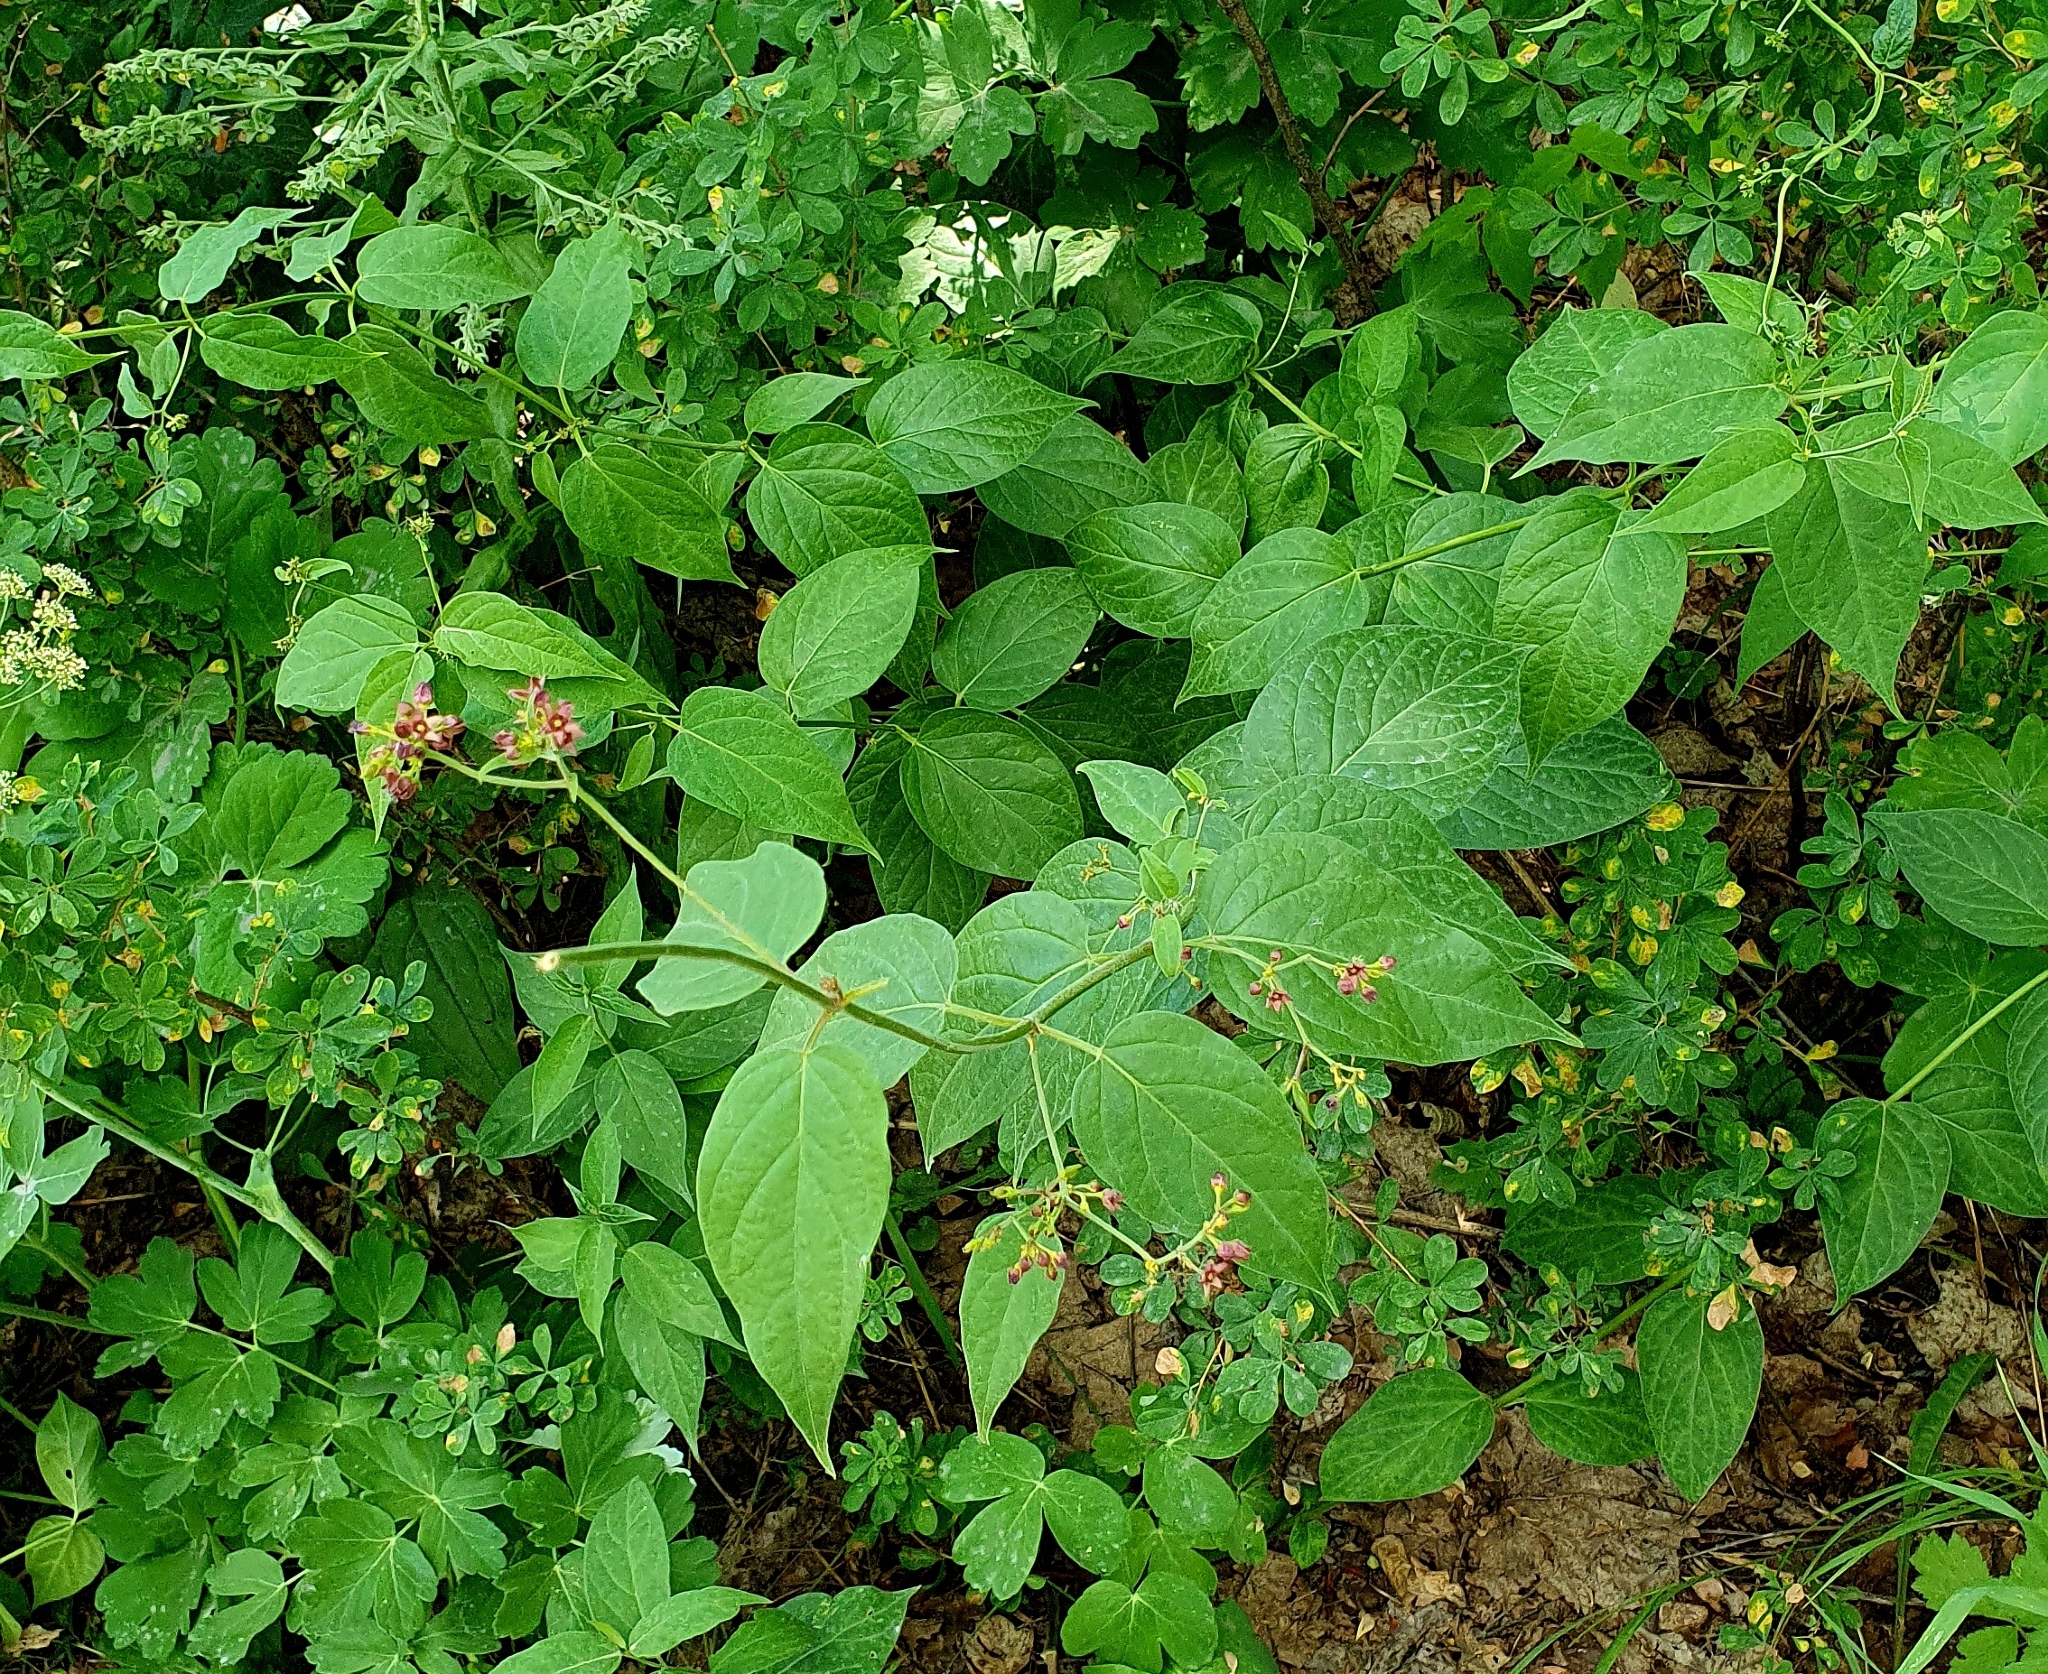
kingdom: Plantae
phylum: Tracheophyta
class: Magnoliopsida
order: Gentianales
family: Apocynaceae
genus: Vincetoxicum
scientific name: Vincetoxicum rossicum
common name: Dog-strangling vine
